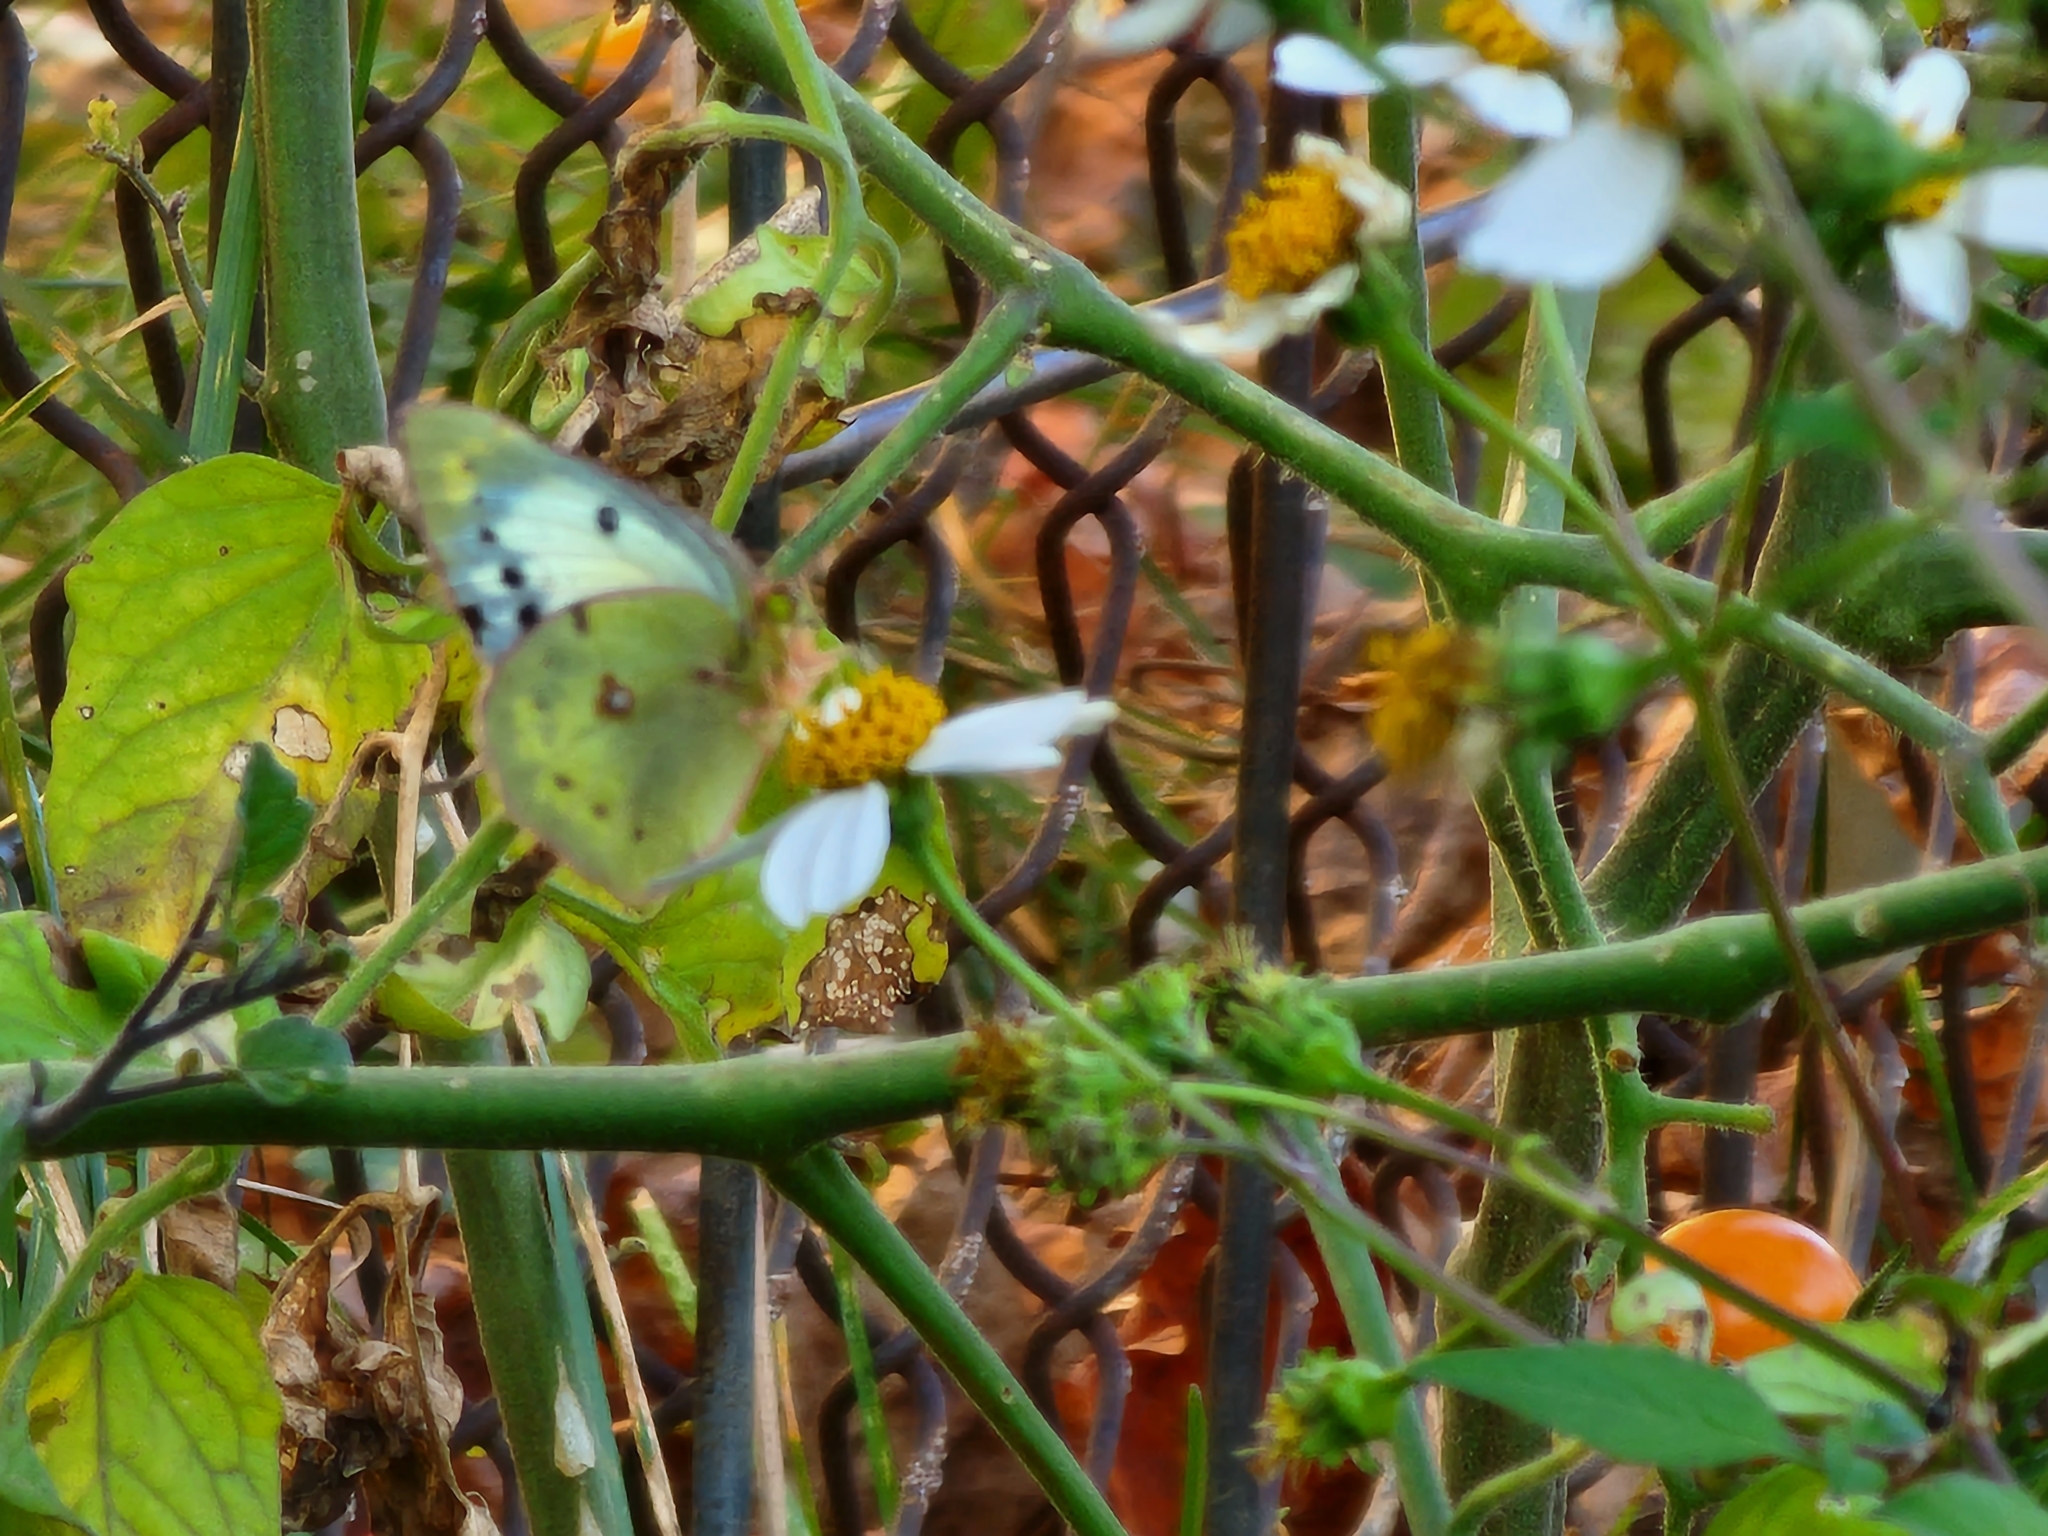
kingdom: Animalia
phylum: Arthropoda
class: Insecta
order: Lepidoptera
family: Pieridae
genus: Colias
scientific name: Colias eurytheme
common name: Alfalfa butterfly
